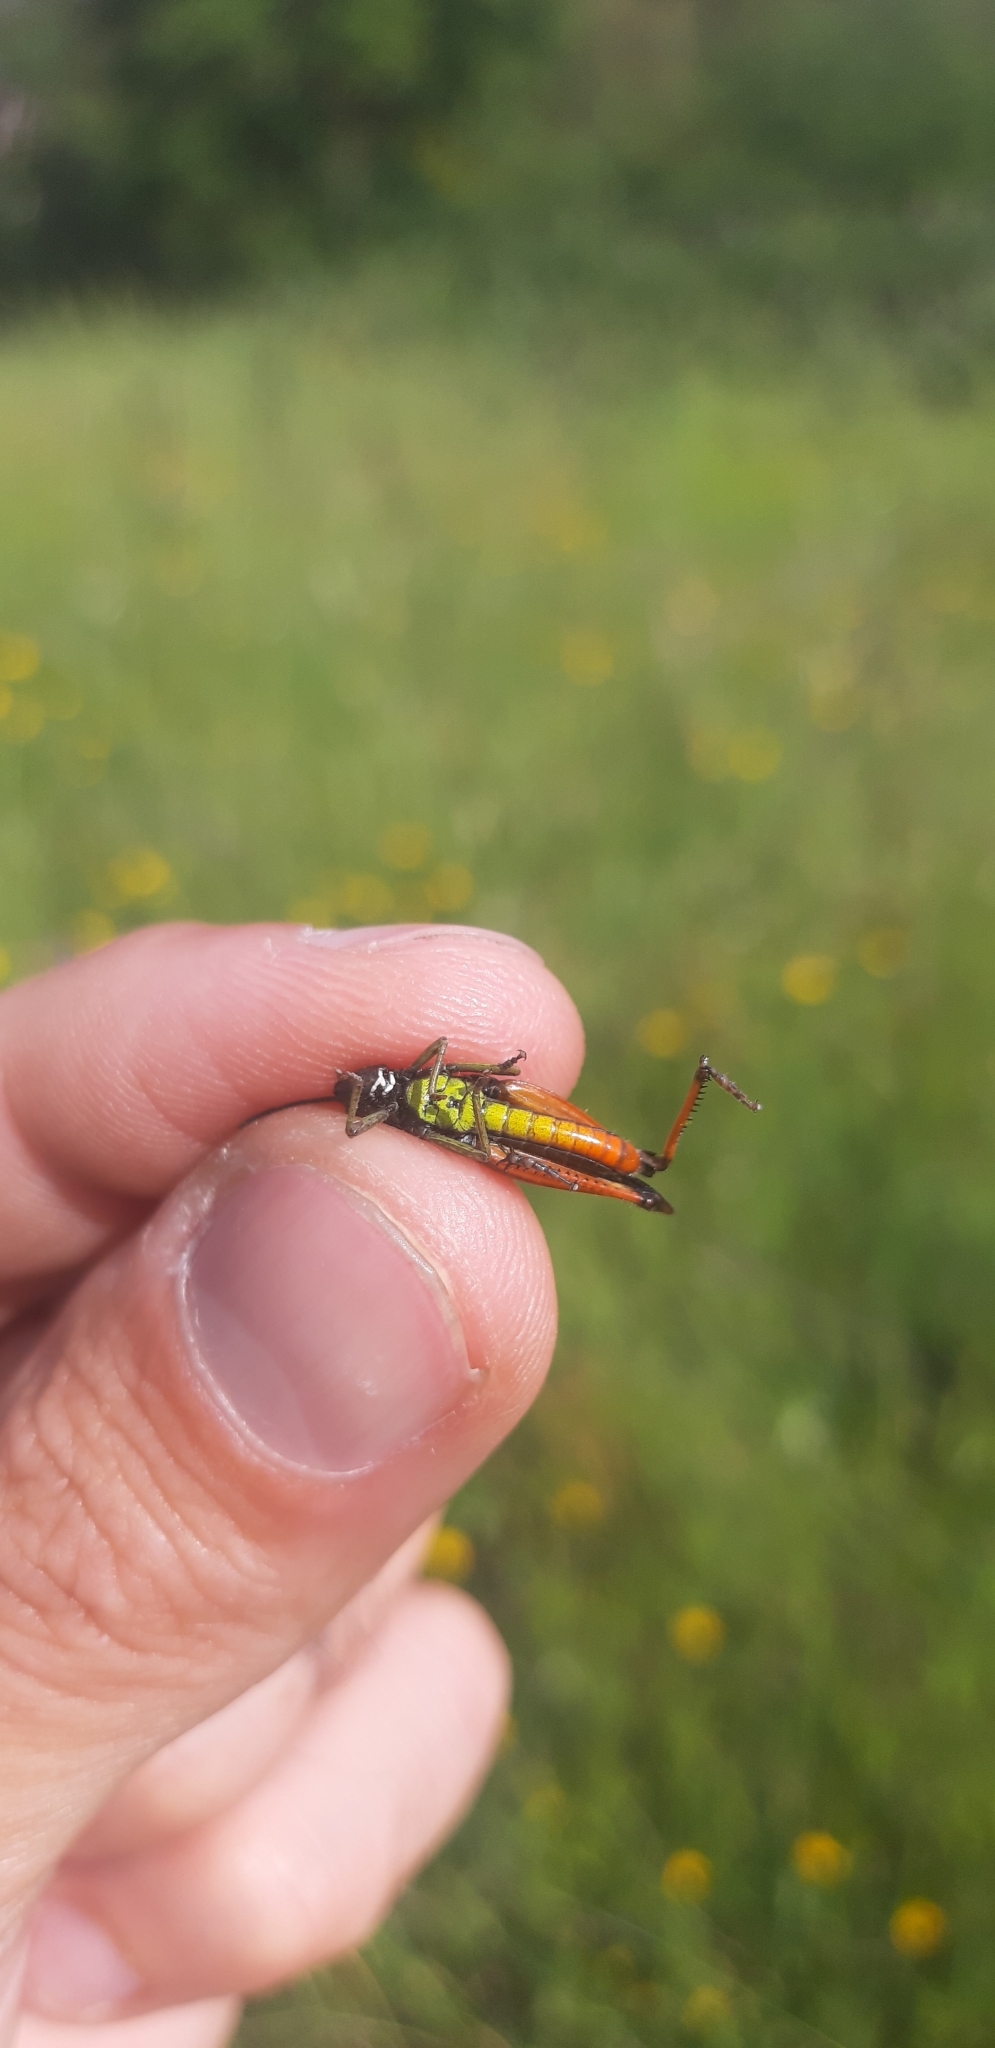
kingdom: Animalia
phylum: Arthropoda
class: Insecta
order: Orthoptera
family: Acrididae
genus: Omocestus
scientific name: Omocestus rufipes
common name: Woodland grasshopper
